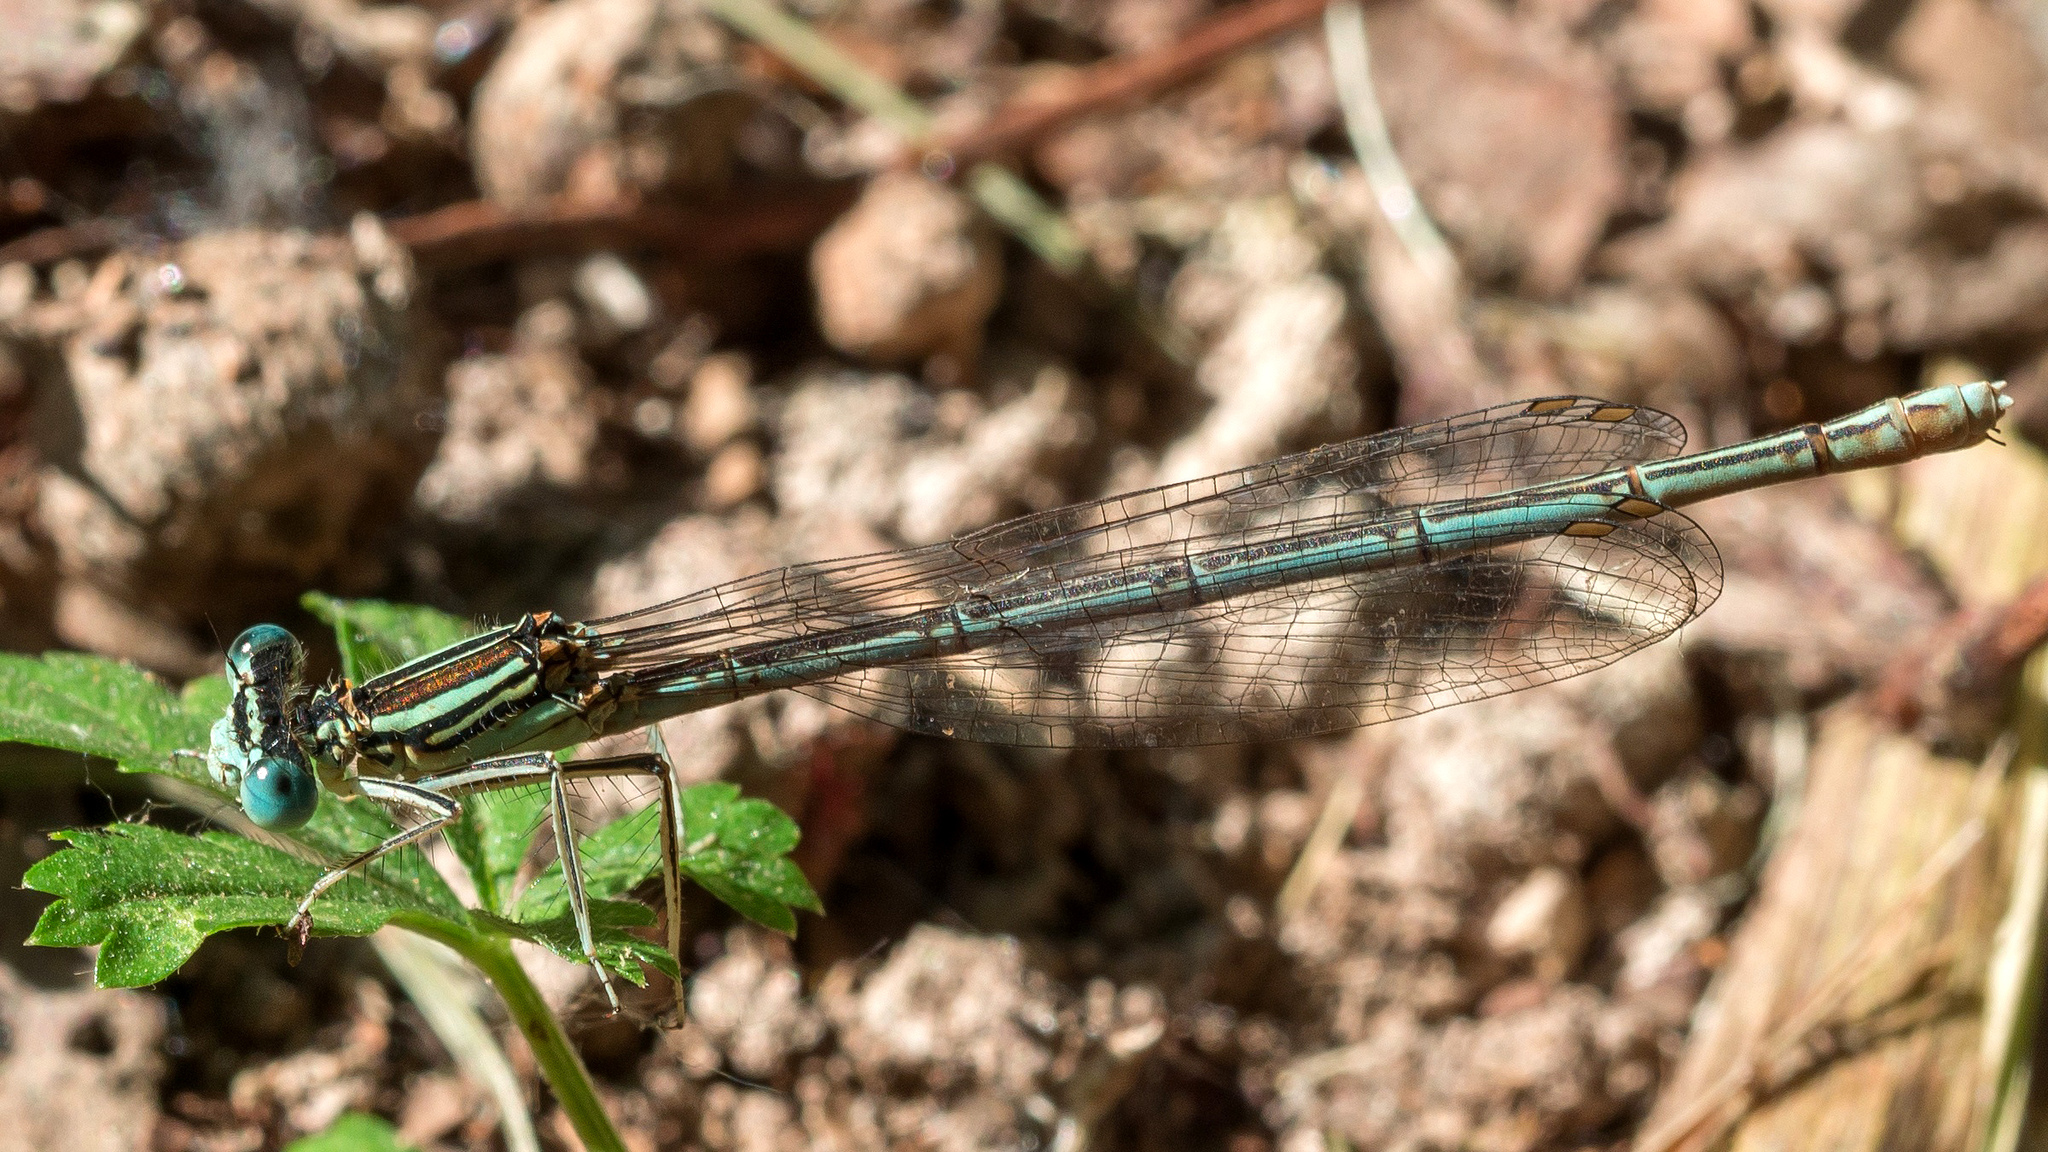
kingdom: Animalia
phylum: Arthropoda
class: Insecta
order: Odonata
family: Platycnemididae
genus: Platycnemis
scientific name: Platycnemis pennipes
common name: White-legged damselfly
